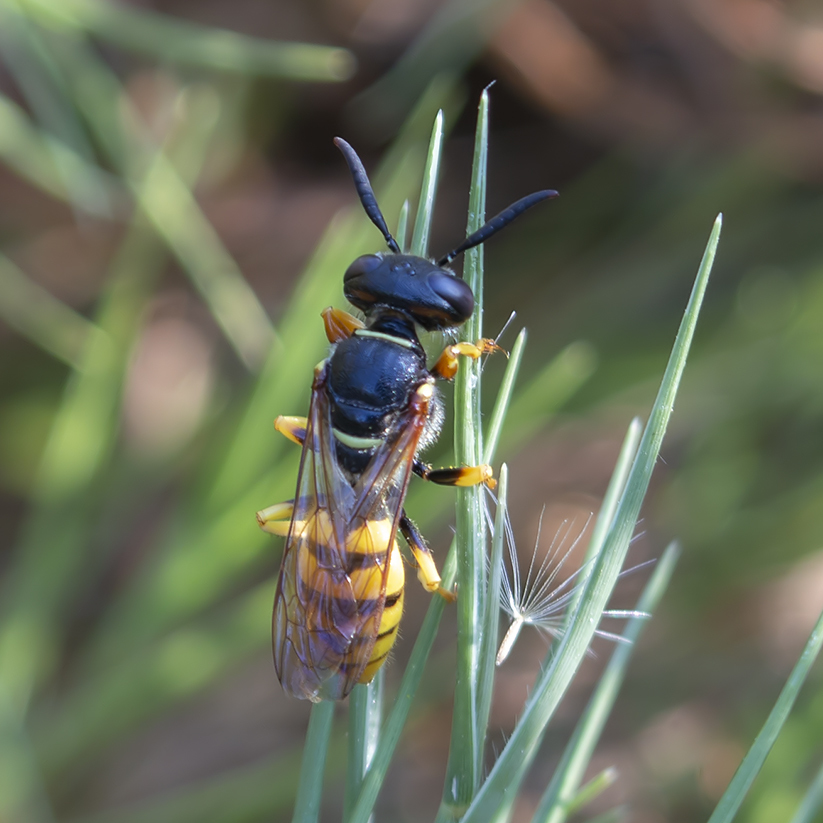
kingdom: Animalia
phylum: Arthropoda
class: Insecta
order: Hymenoptera
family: Crabronidae
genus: Philanthus
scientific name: Philanthus triangulum
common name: Bee wolf
